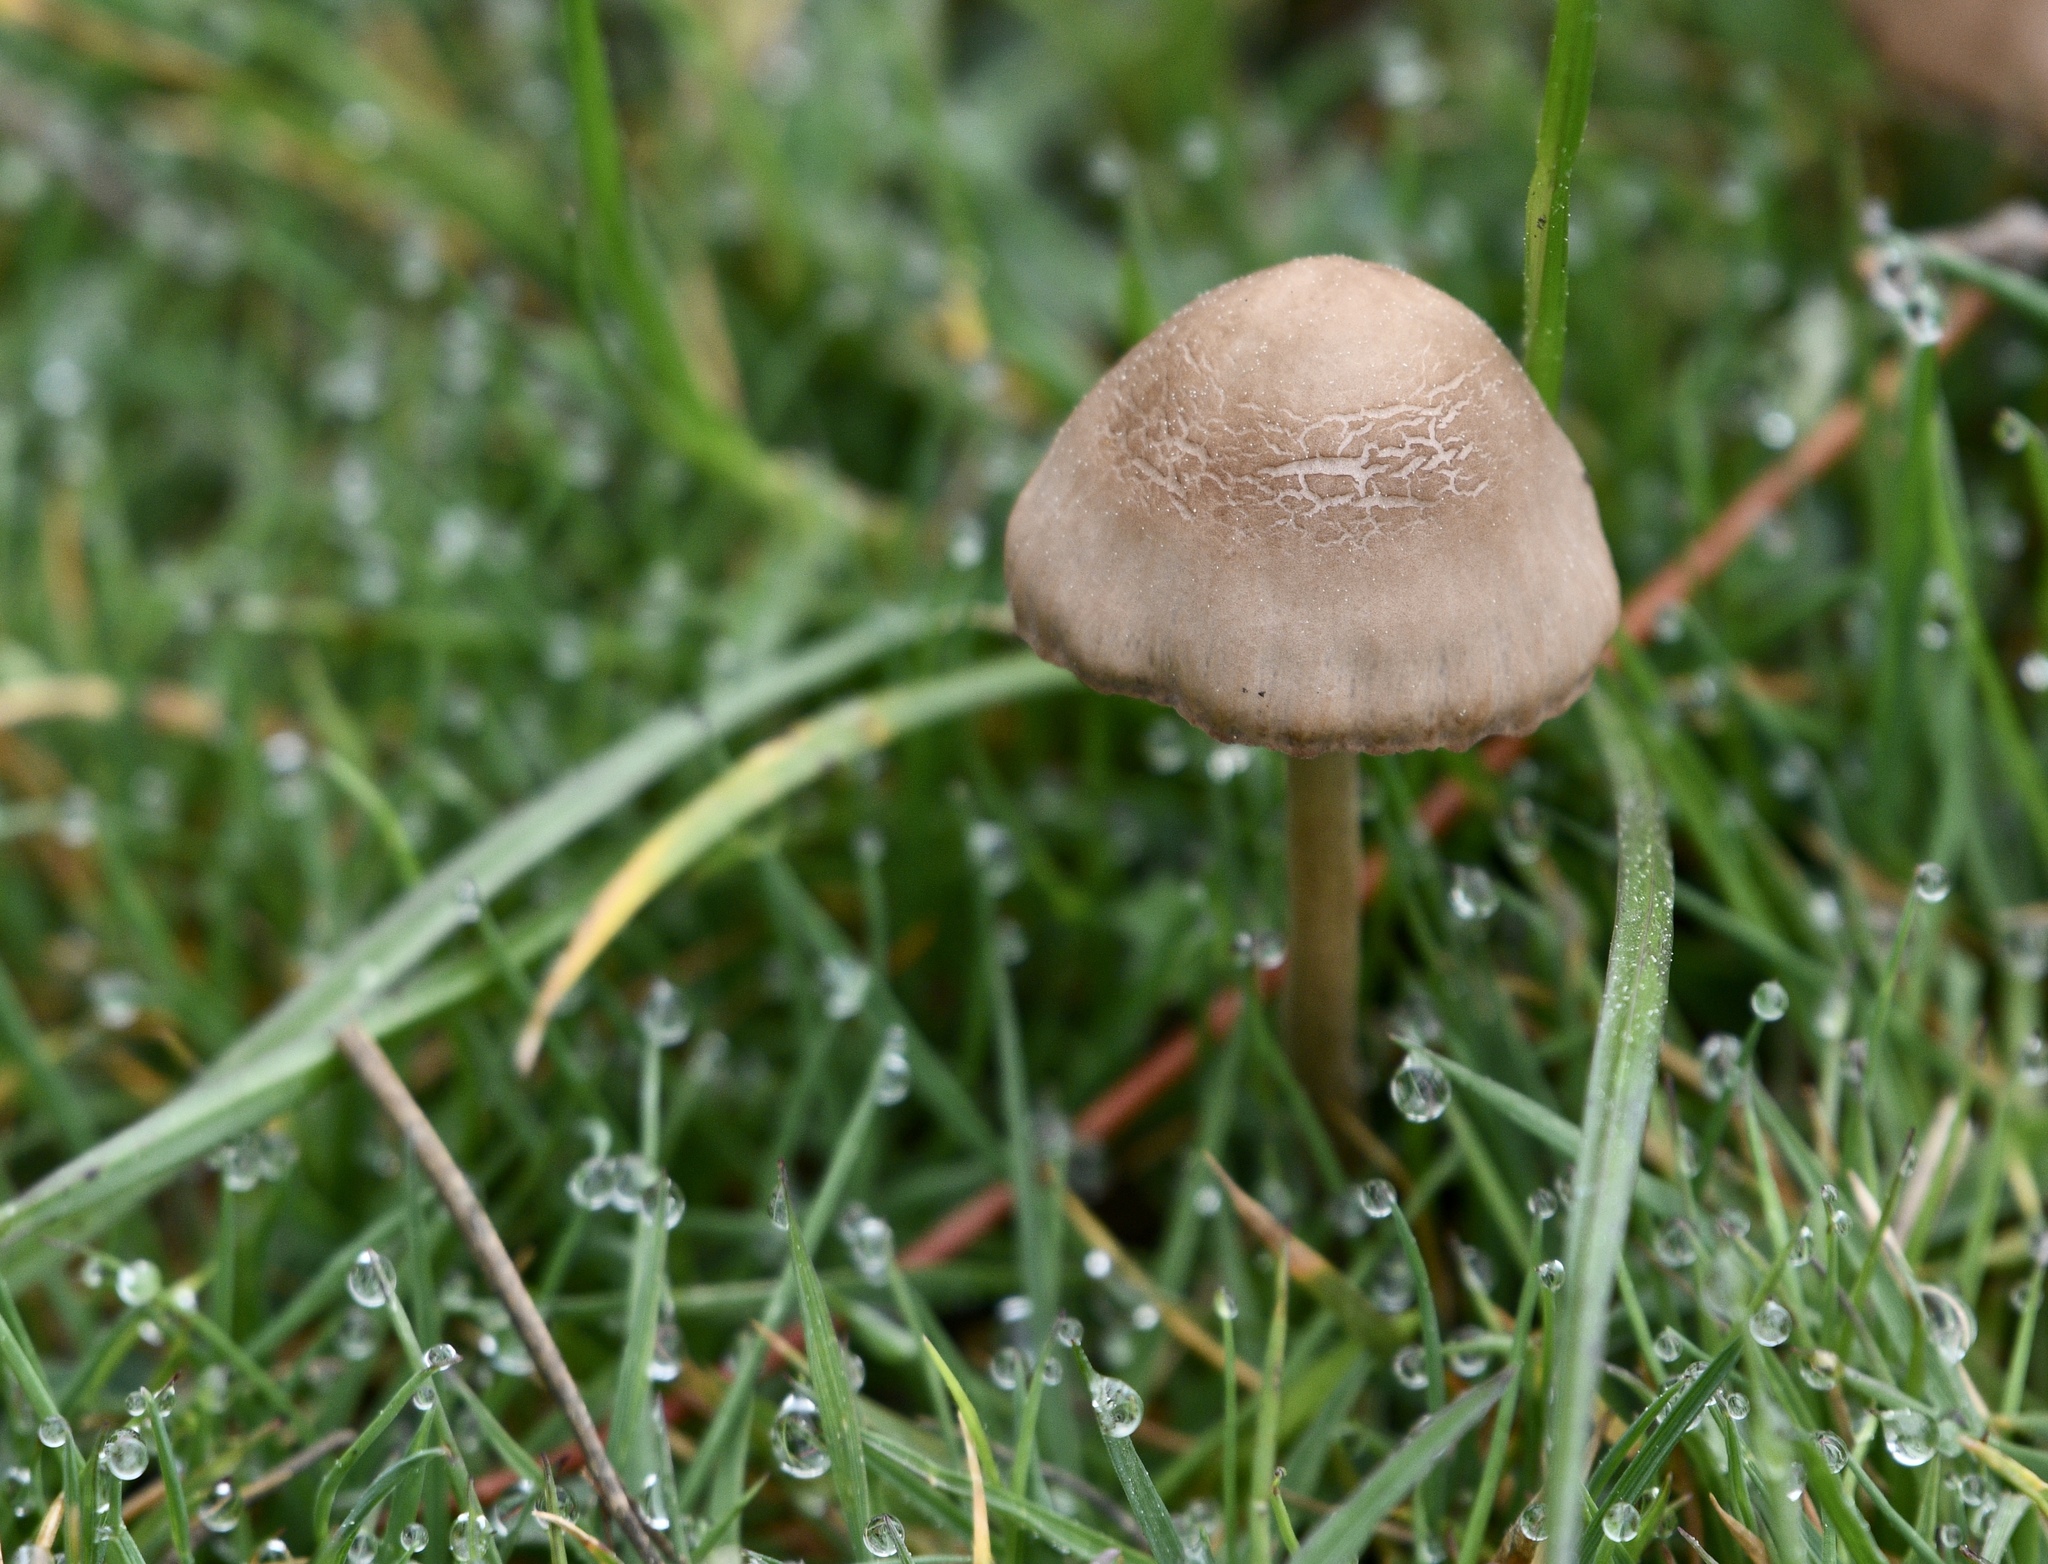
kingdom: Fungi
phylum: Basidiomycota
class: Agaricomycetes
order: Agaricales
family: Bolbitiaceae
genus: Panaeolina
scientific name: Panaeolina foenisecii
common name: Brown hay cap
